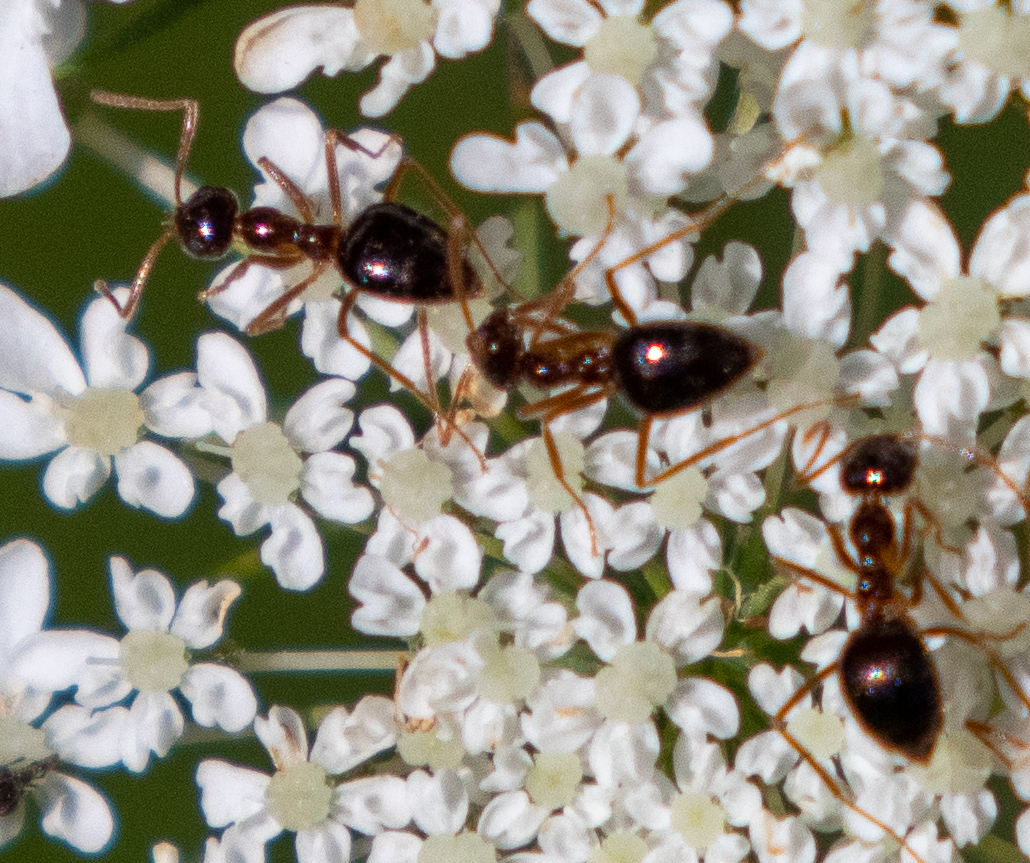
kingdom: Animalia
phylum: Arthropoda
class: Insecta
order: Hymenoptera
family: Formicidae
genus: Prenolepis
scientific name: Prenolepis imparis
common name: Small honey ant
